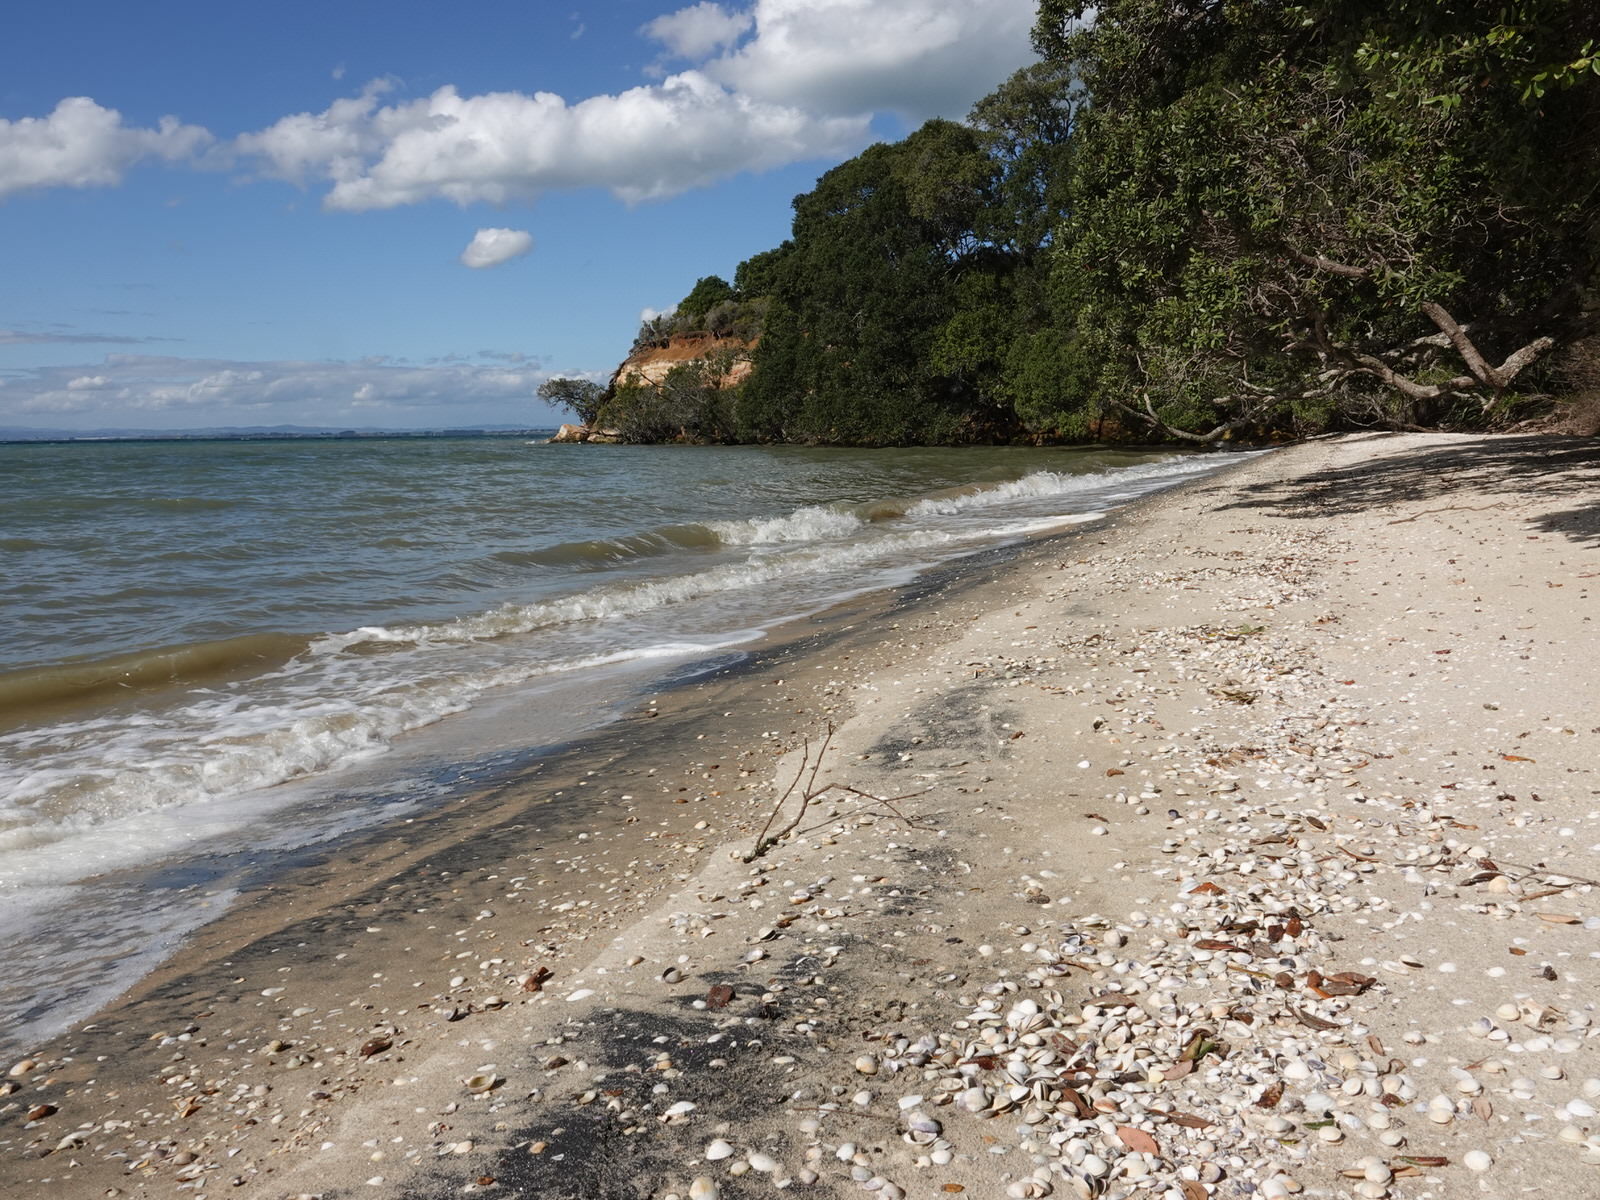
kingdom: Animalia
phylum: Mollusca
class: Bivalvia
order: Venerida
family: Mesodesmatidae
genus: Paphies
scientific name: Paphies australis
